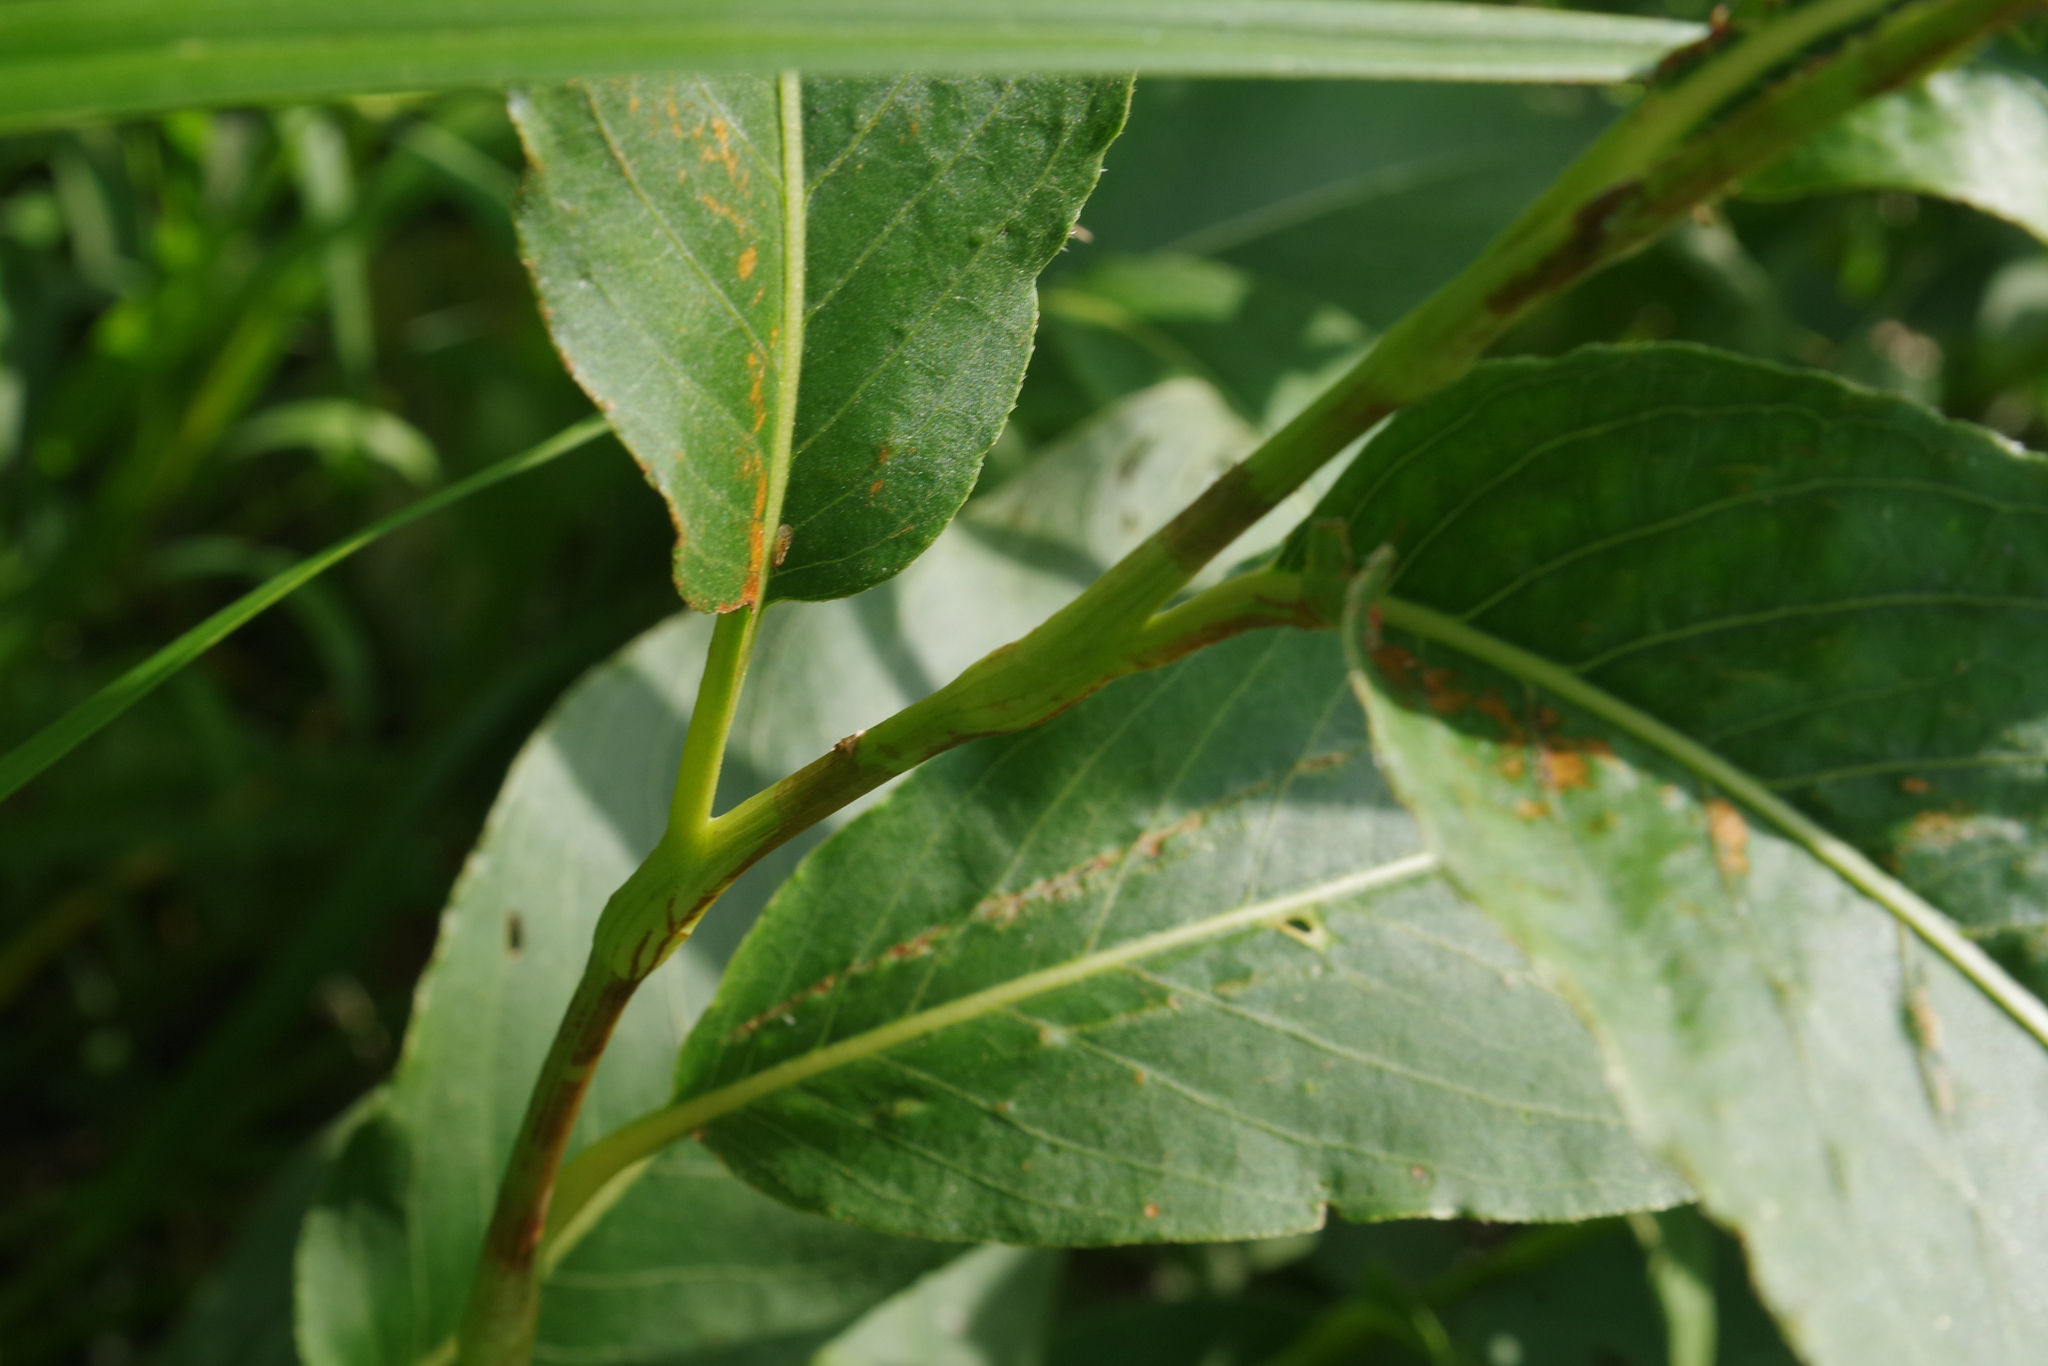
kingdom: Plantae
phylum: Tracheophyta
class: Magnoliopsida
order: Caryophyllales
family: Polygonaceae
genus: Persicaria
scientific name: Persicaria amphibia
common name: Amphibious bistort
